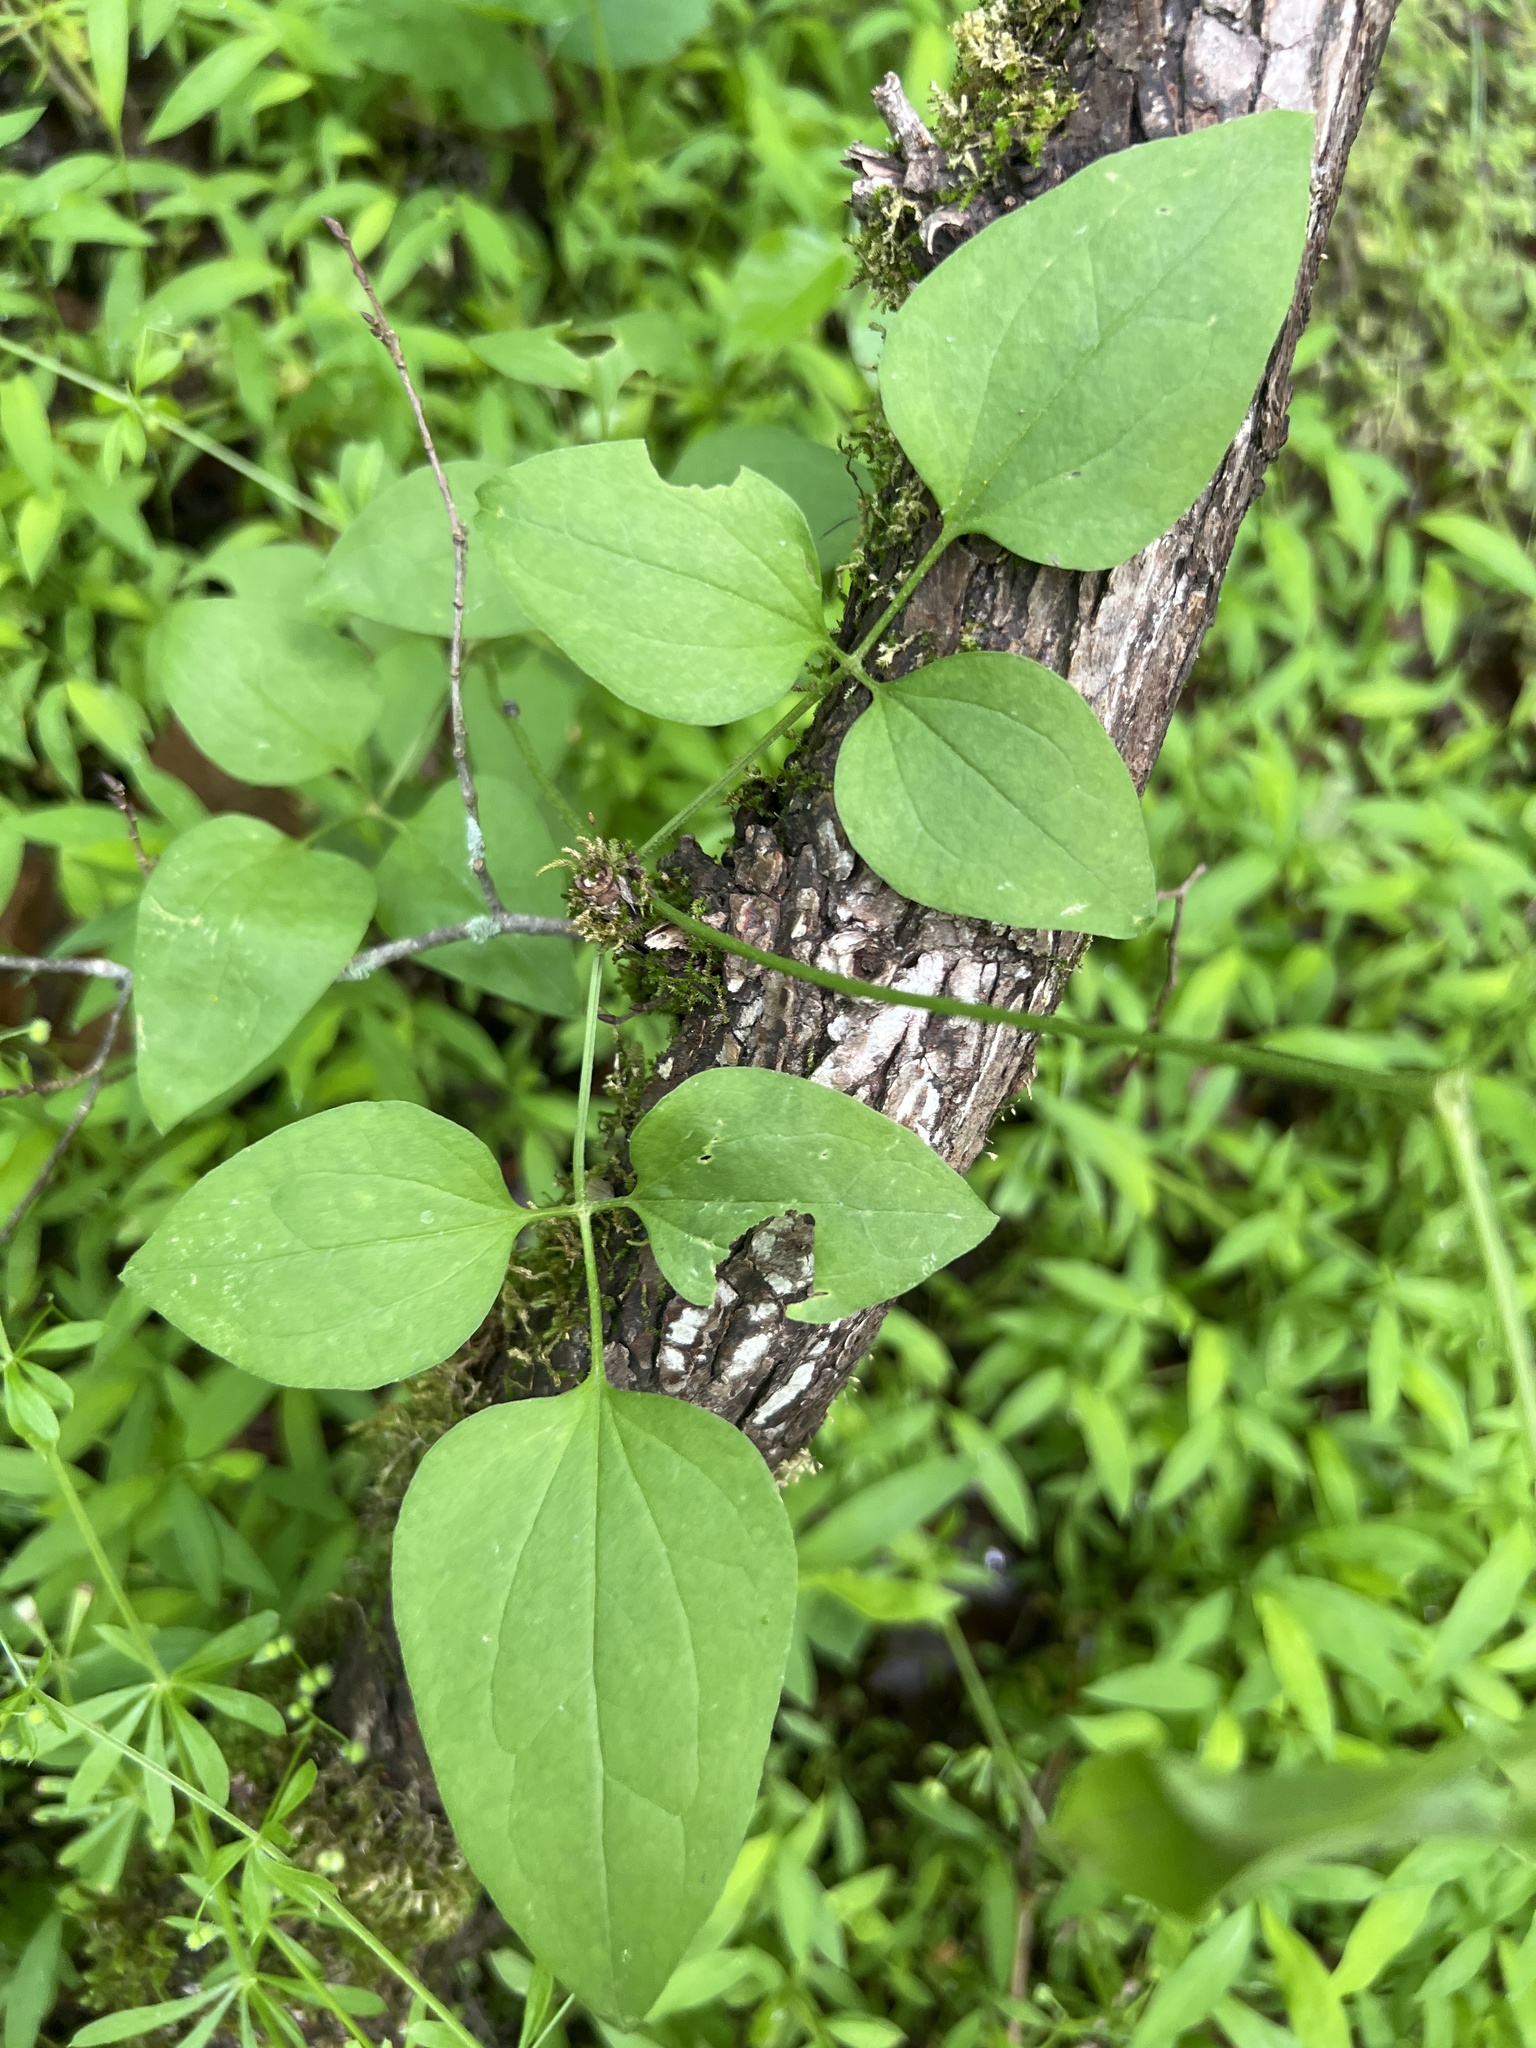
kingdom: Plantae
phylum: Tracheophyta
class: Magnoliopsida
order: Ranunculales
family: Ranunculaceae
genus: Clematis
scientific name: Clematis terniflora
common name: Sweet autumn clematis
